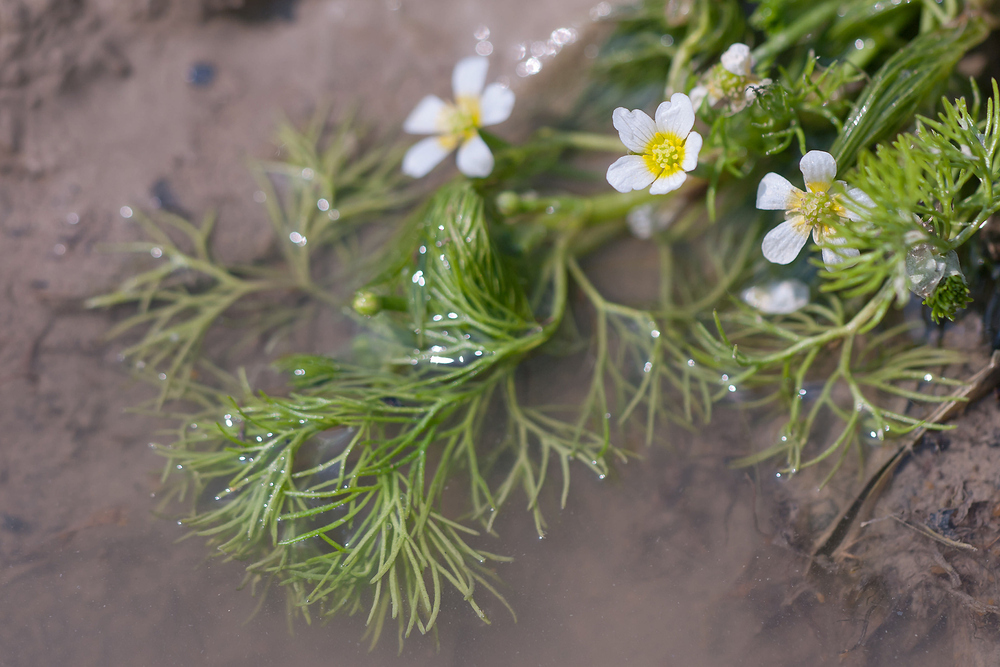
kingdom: Plantae
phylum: Tracheophyta
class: Magnoliopsida
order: Ranunculales
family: Ranunculaceae
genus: Ranunculus
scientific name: Ranunculus trichophyllus
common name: Thread-leaved water-crowfoot
